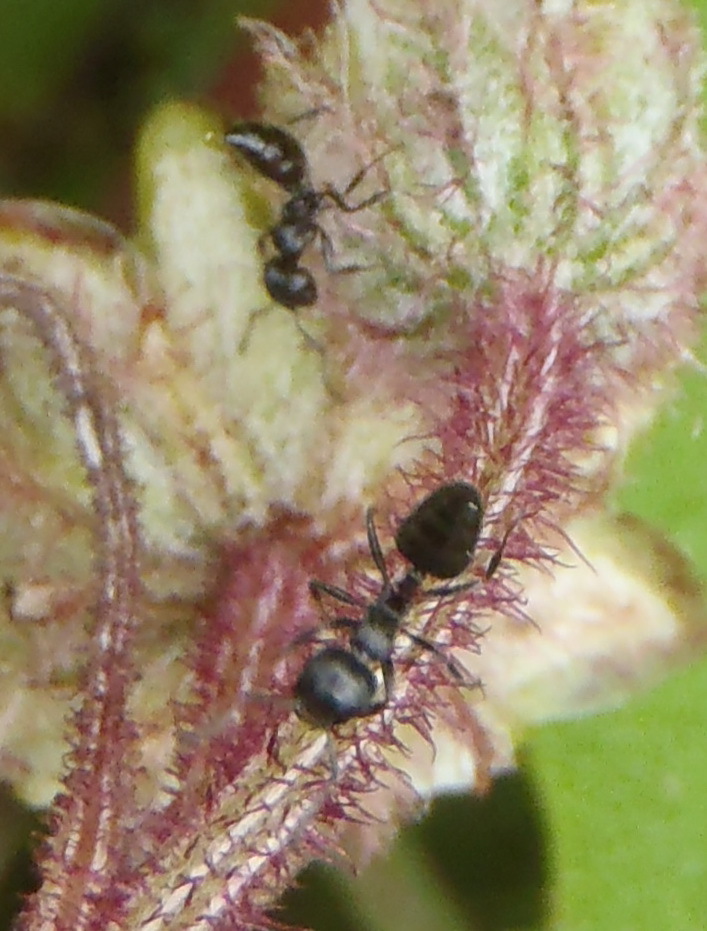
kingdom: Animalia
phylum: Arthropoda
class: Insecta
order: Hymenoptera
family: Formicidae
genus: Crematogaster
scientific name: Crematogaster
